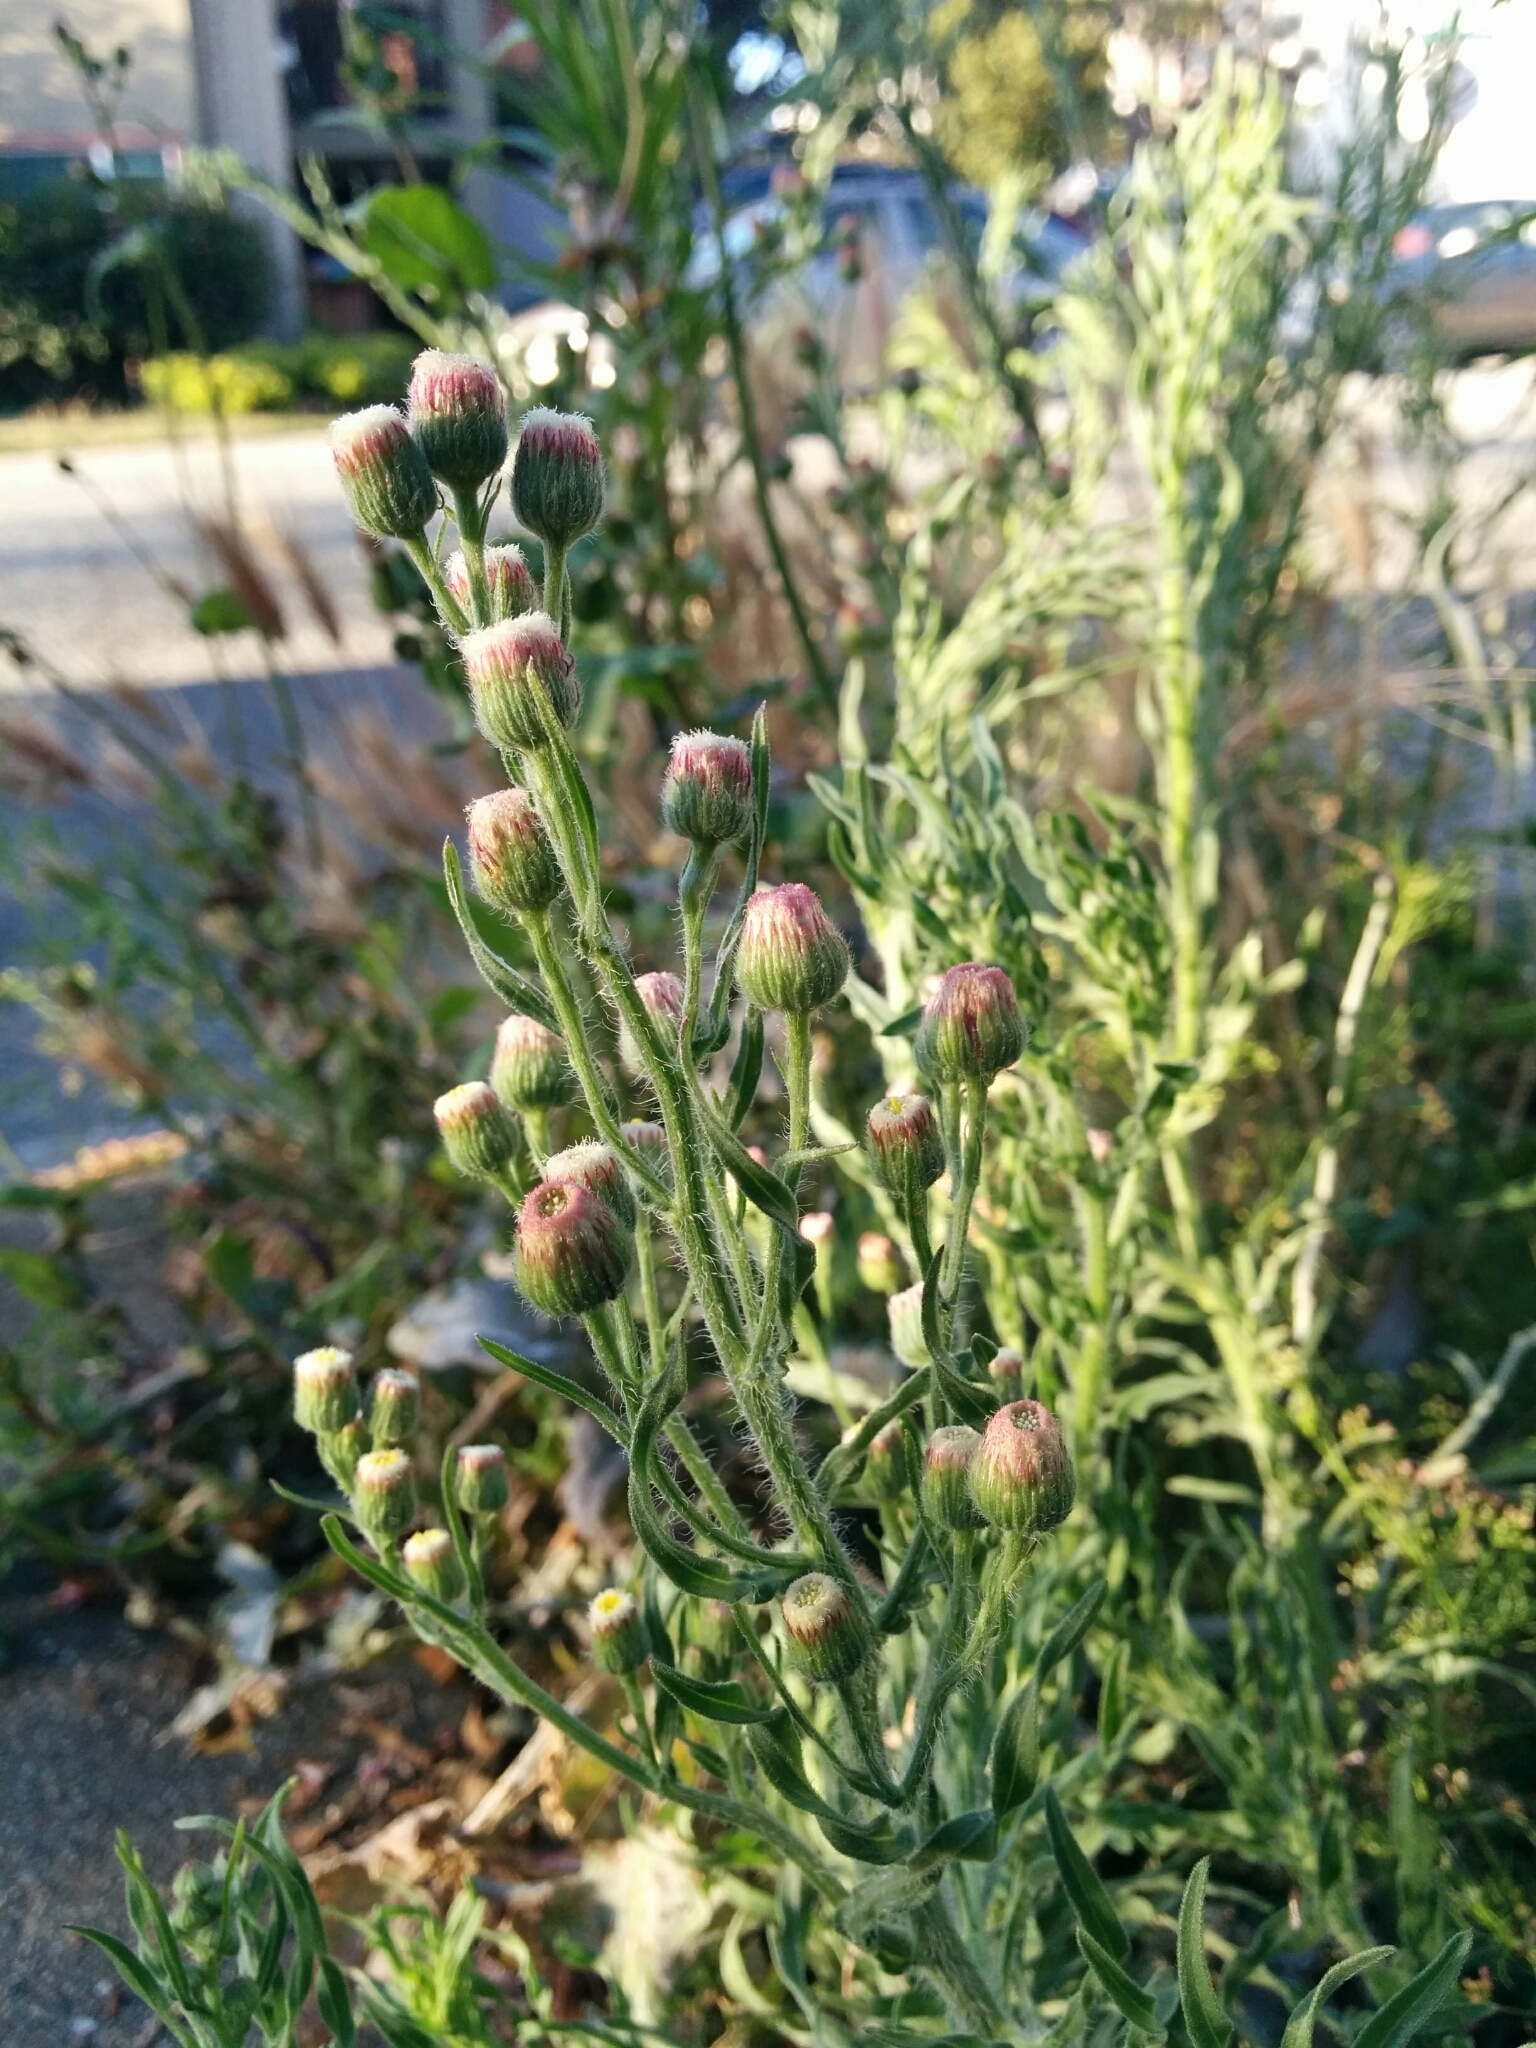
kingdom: Plantae
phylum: Tracheophyta
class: Magnoliopsida
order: Asterales
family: Asteraceae
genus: Erigeron
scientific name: Erigeron bonariensis
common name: Argentine fleabane
